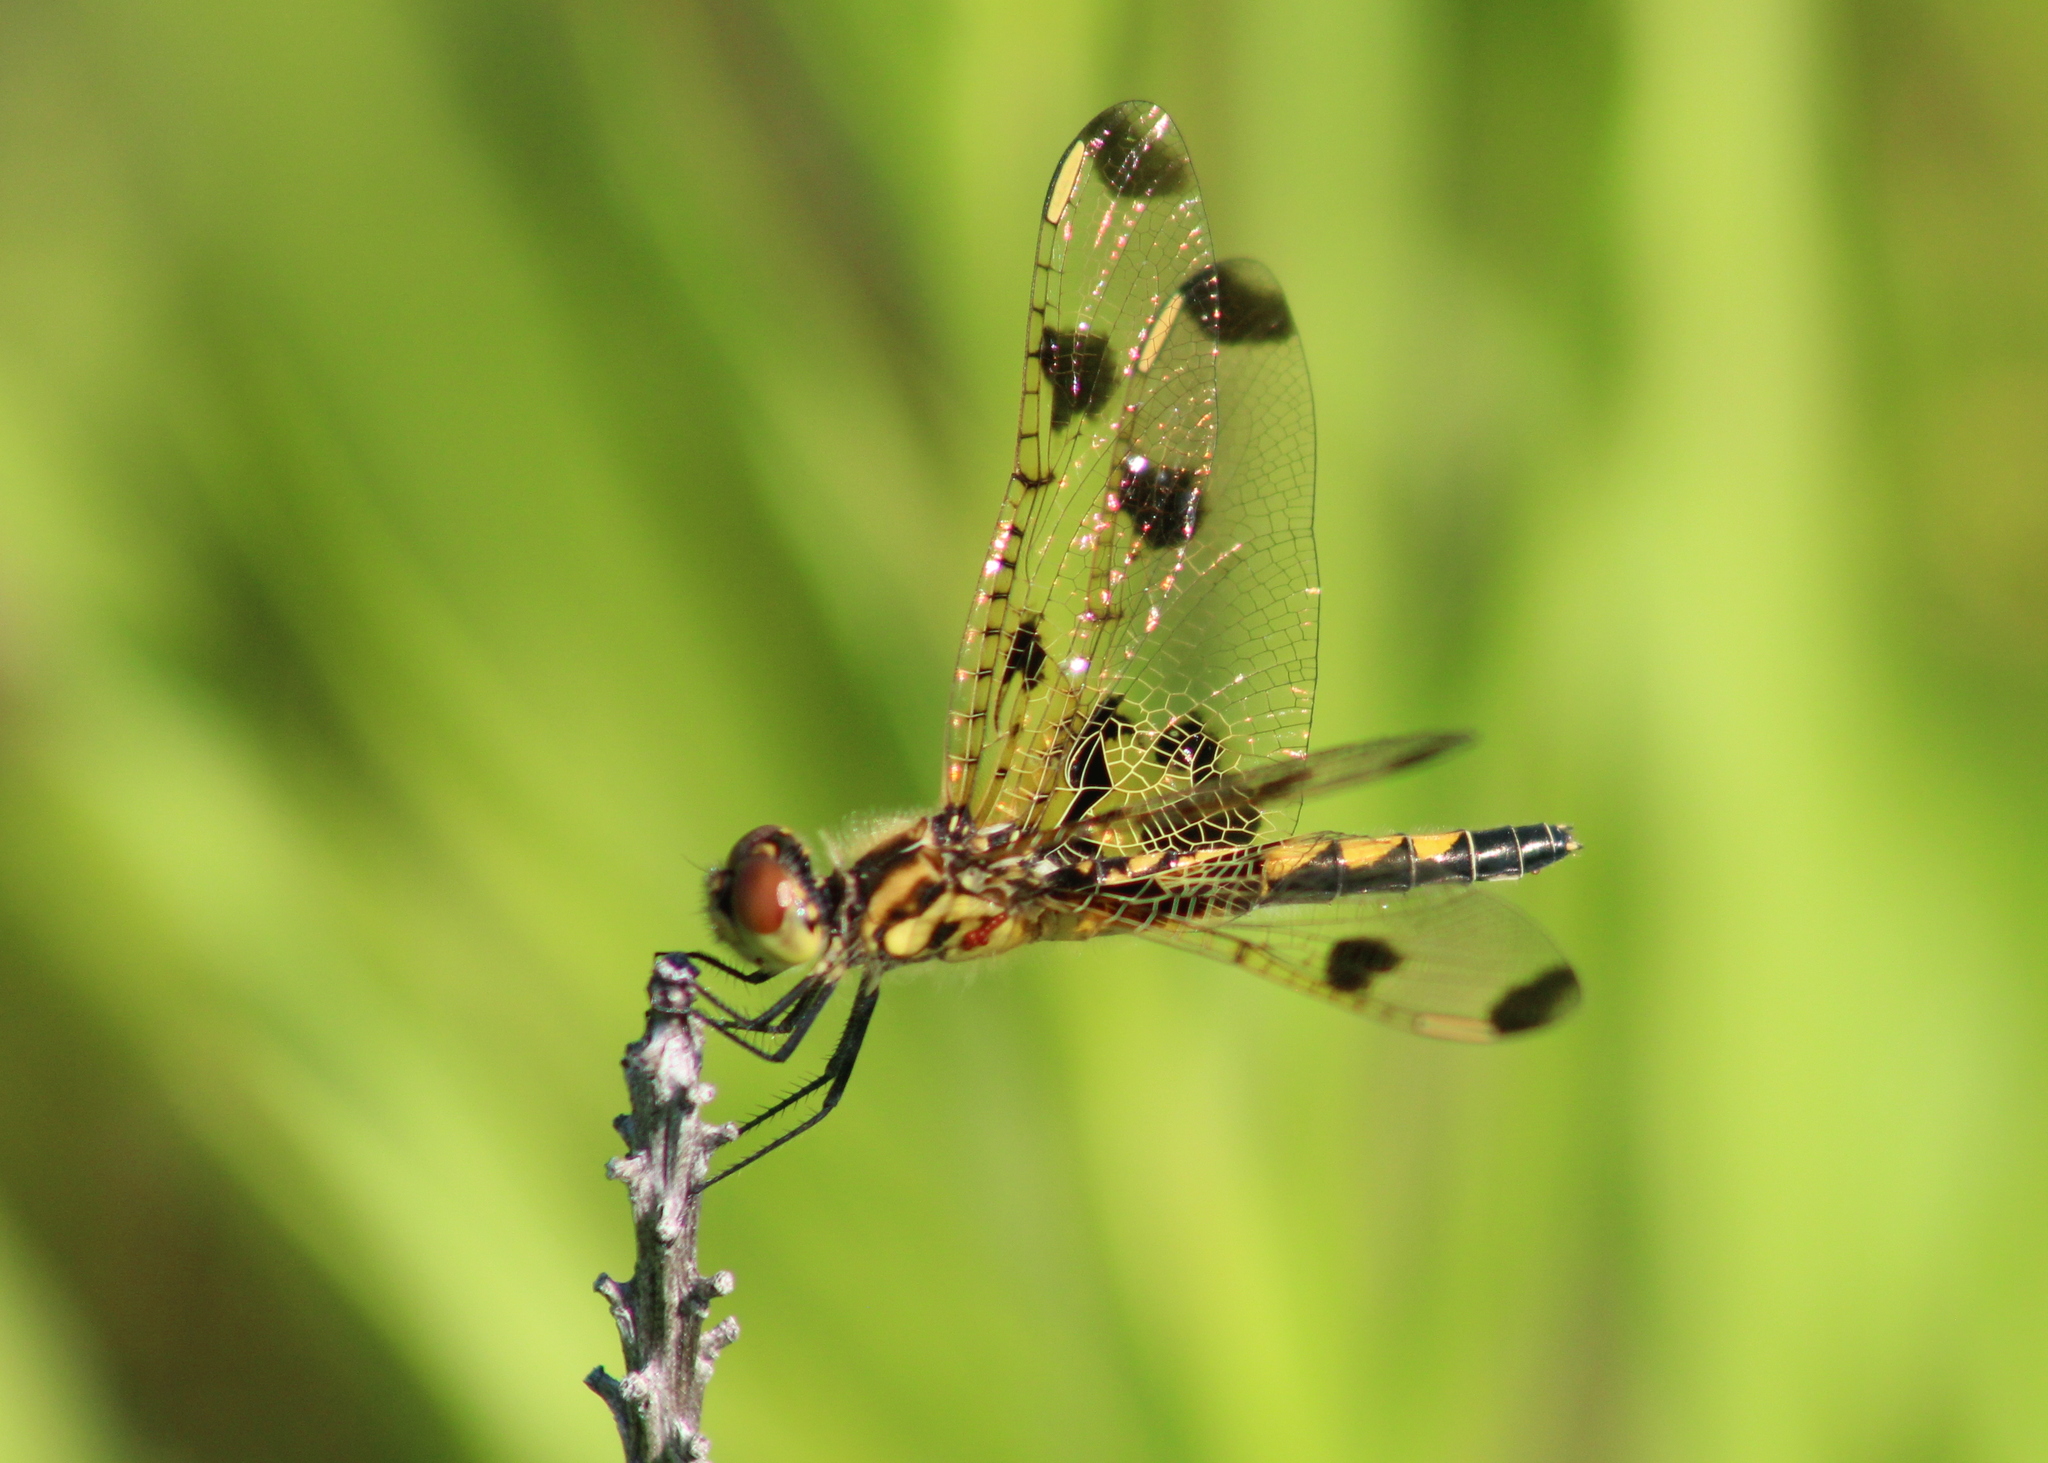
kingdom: Animalia
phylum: Arthropoda
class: Insecta
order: Odonata
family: Libellulidae
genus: Celithemis
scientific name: Celithemis elisa
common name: Calico pennant
